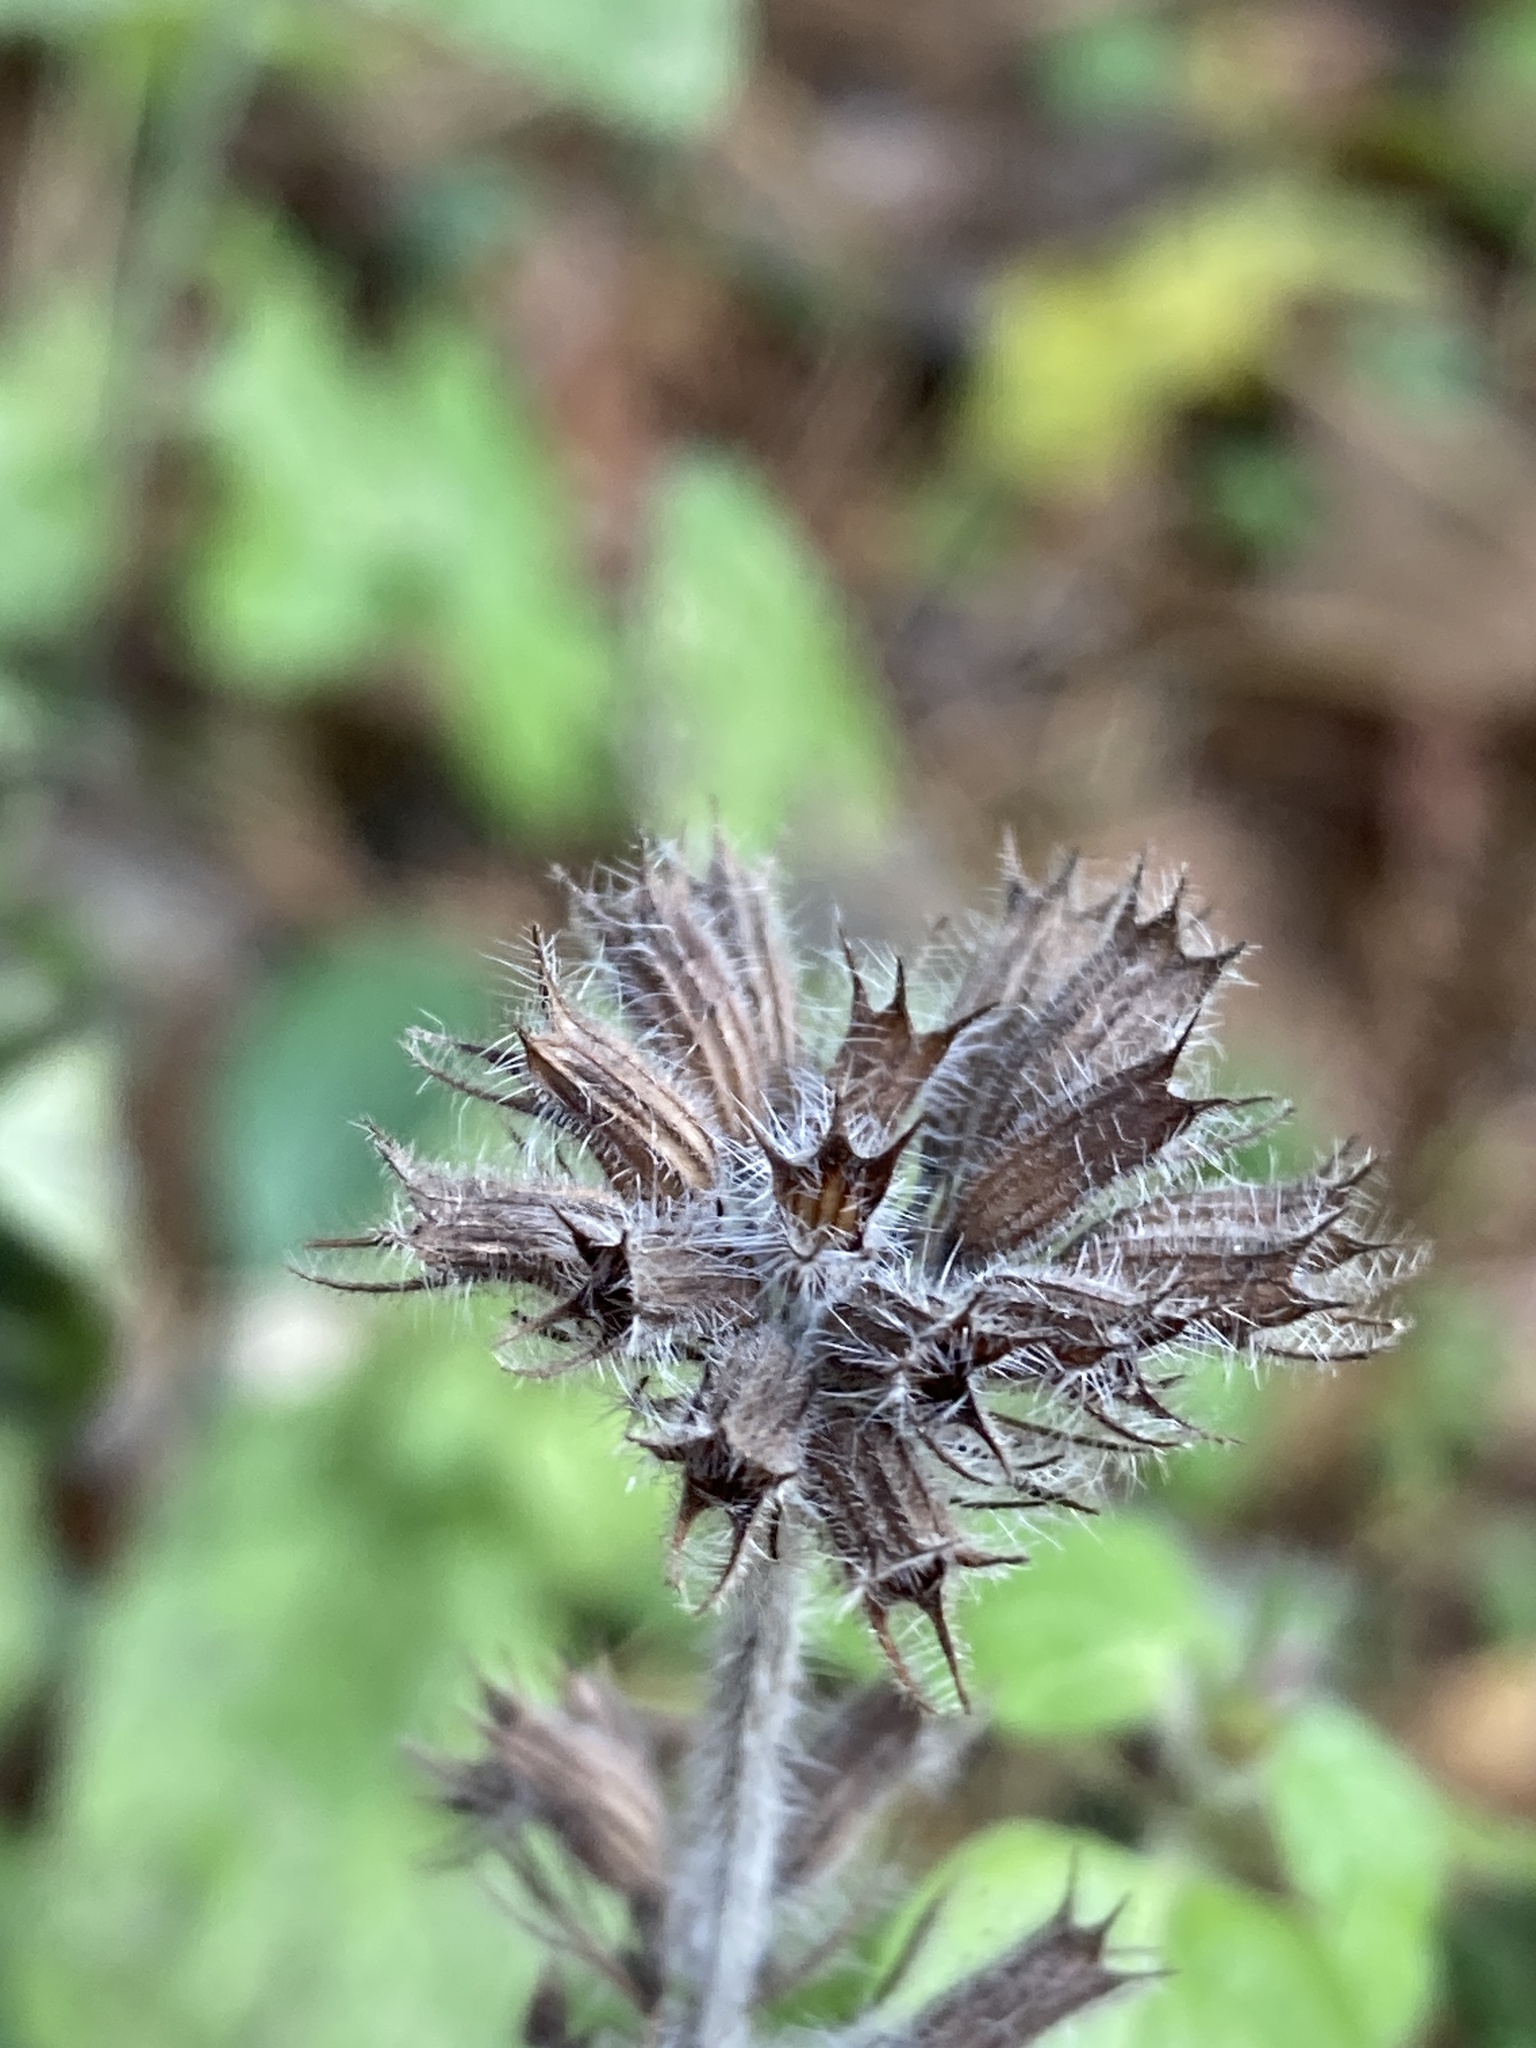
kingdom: Plantae
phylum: Tracheophyta
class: Magnoliopsida
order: Lamiales
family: Lamiaceae
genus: Clinopodium
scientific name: Clinopodium vulgare
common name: Wild basil
